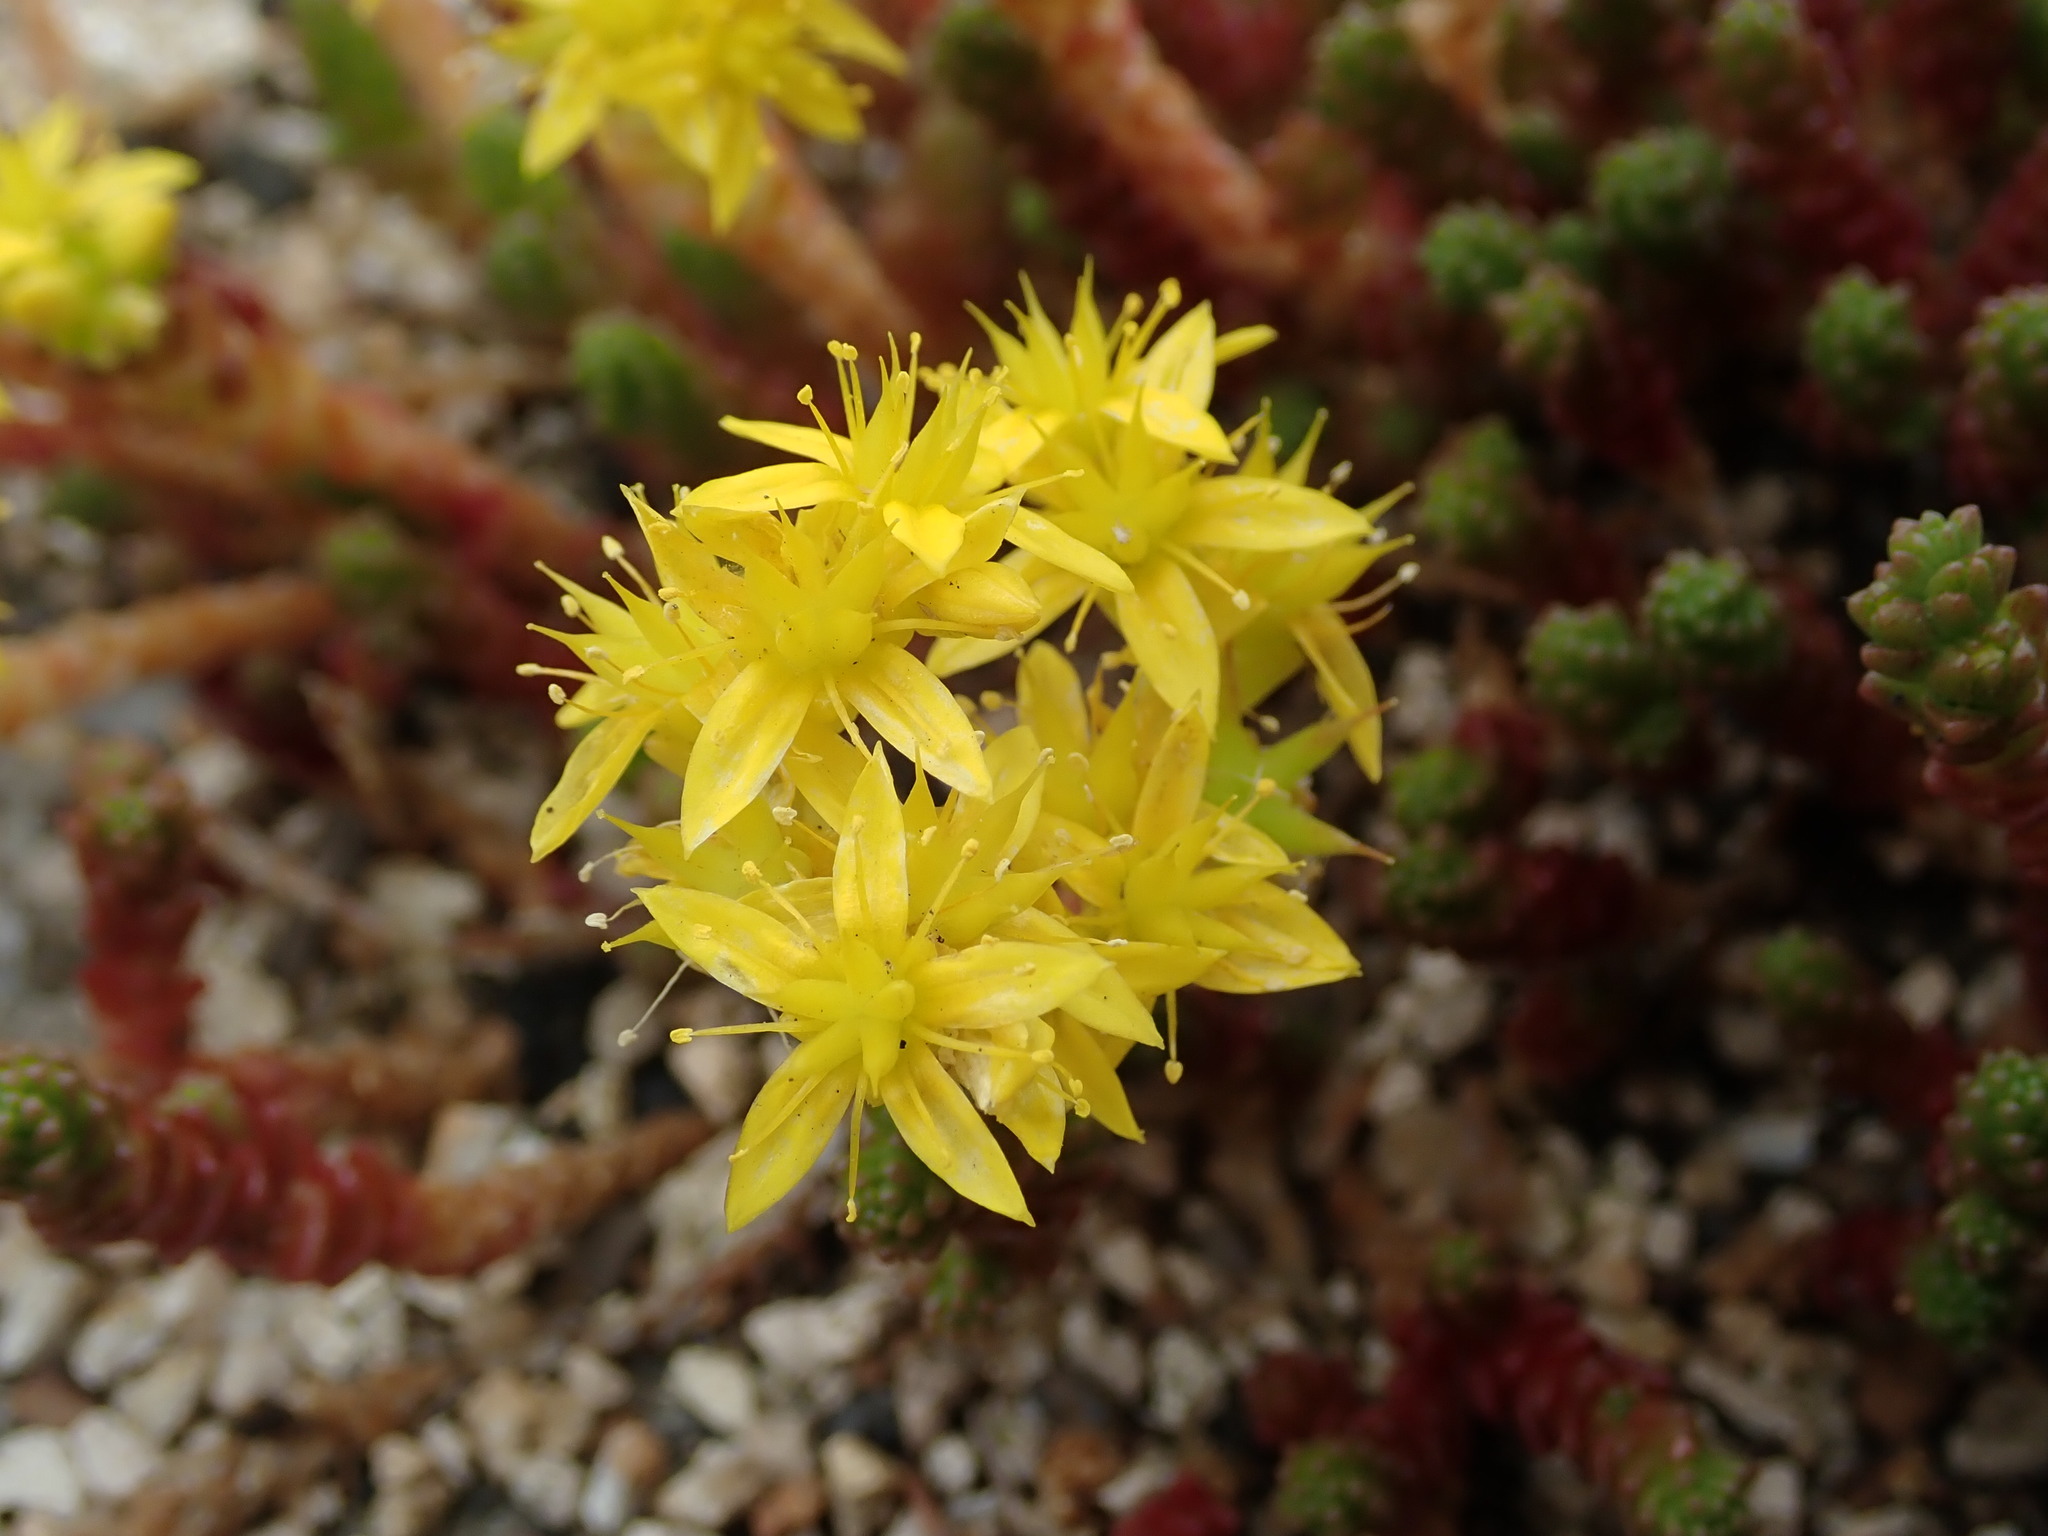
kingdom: Plantae
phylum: Tracheophyta
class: Magnoliopsida
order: Saxifragales
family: Crassulaceae
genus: Sedum
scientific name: Sedum acre
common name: Biting stonecrop
